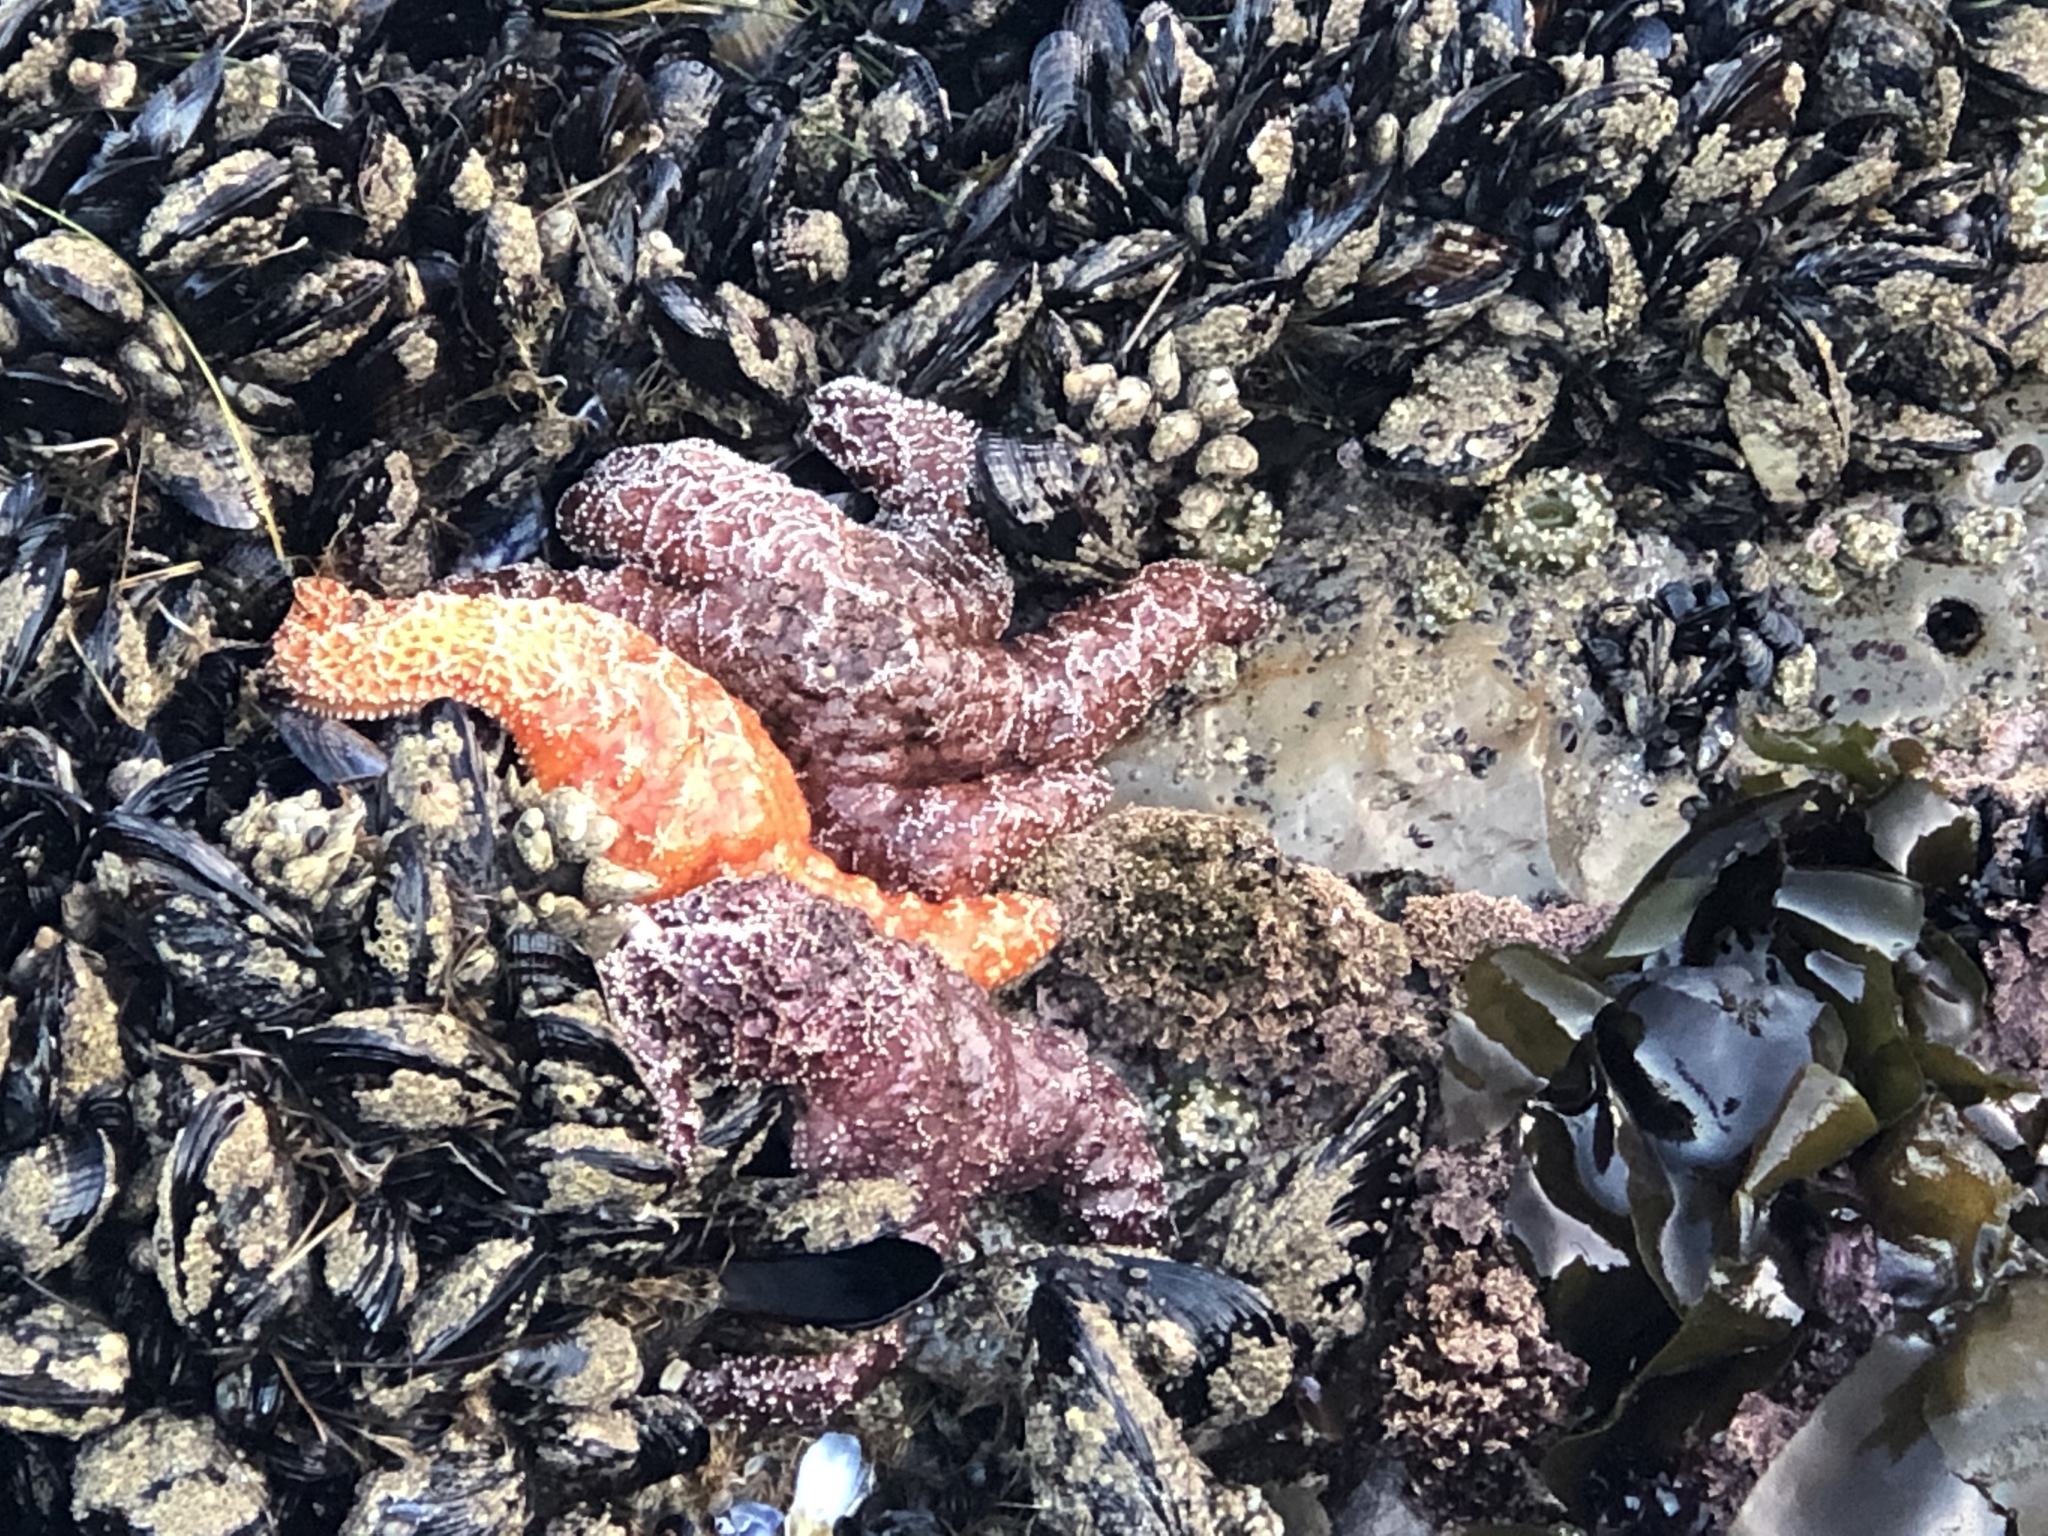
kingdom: Animalia
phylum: Echinodermata
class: Asteroidea
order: Forcipulatida
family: Asteriidae
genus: Pisaster
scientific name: Pisaster ochraceus
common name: Ochre stars
